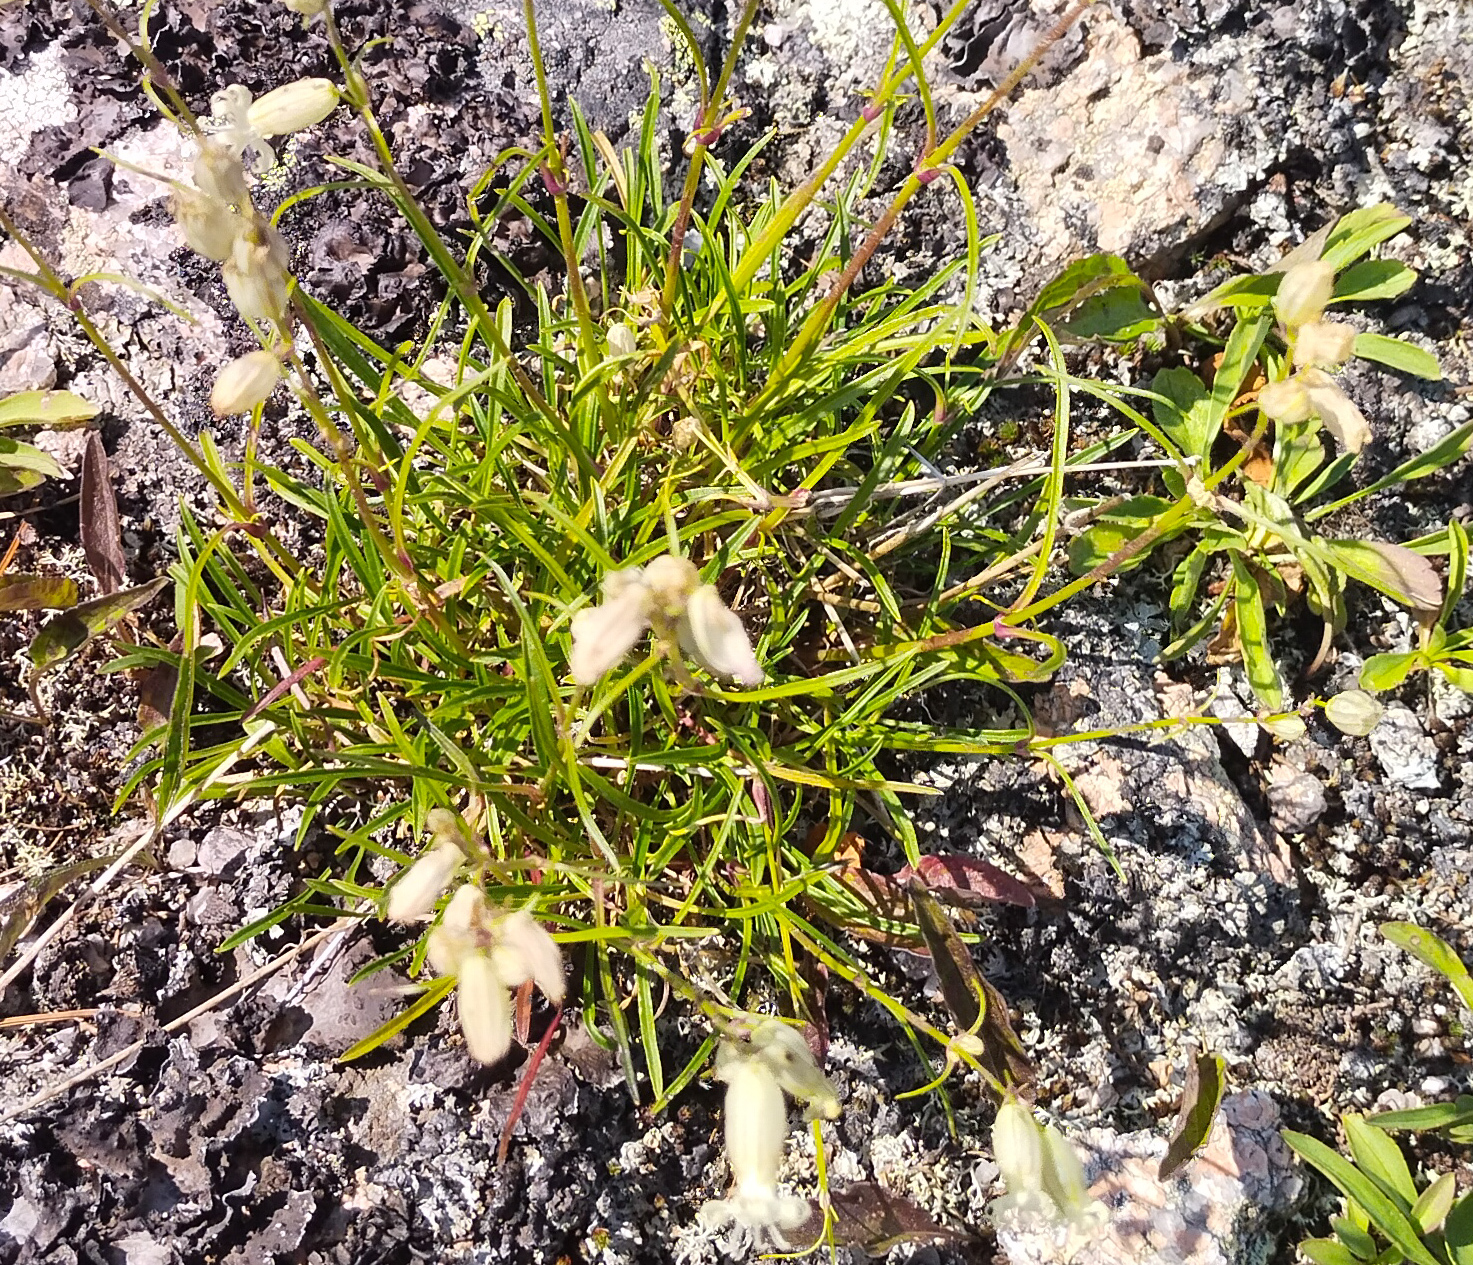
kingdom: Plantae
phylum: Tracheophyta
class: Magnoliopsida
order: Caryophyllales
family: Caryophyllaceae
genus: Silene
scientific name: Silene jeniseensis
